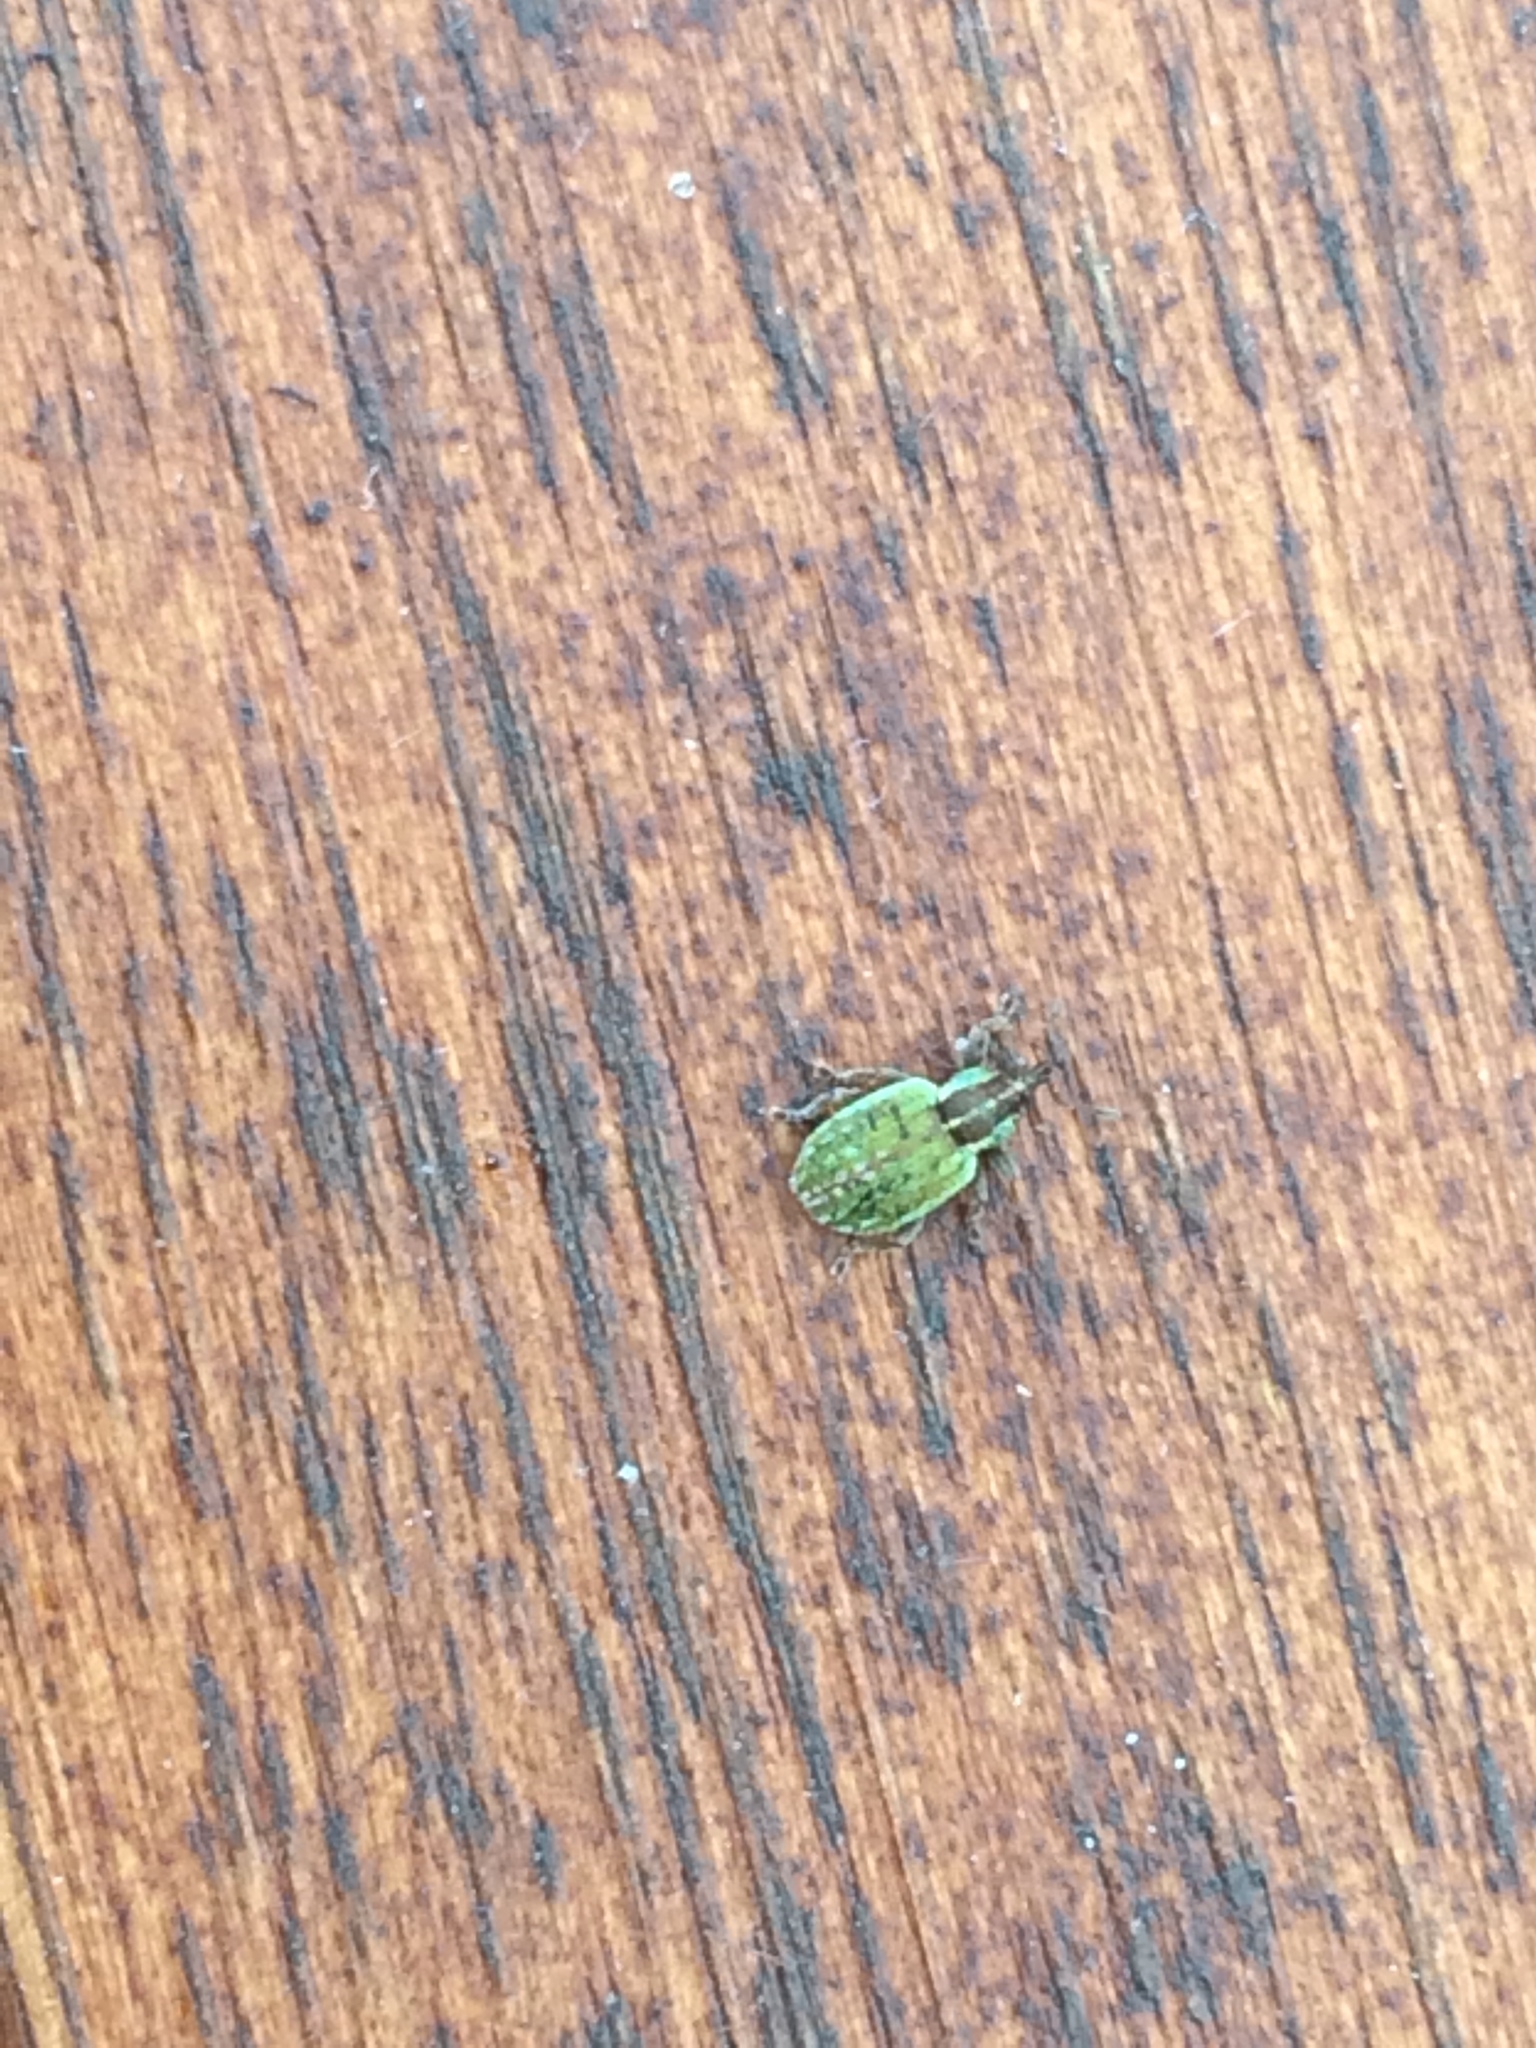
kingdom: Animalia
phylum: Arthropoda
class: Insecta
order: Coleoptera
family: Curculionidae
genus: Hypera
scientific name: Hypera nigrirostris
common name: Black-beaked green weevil
